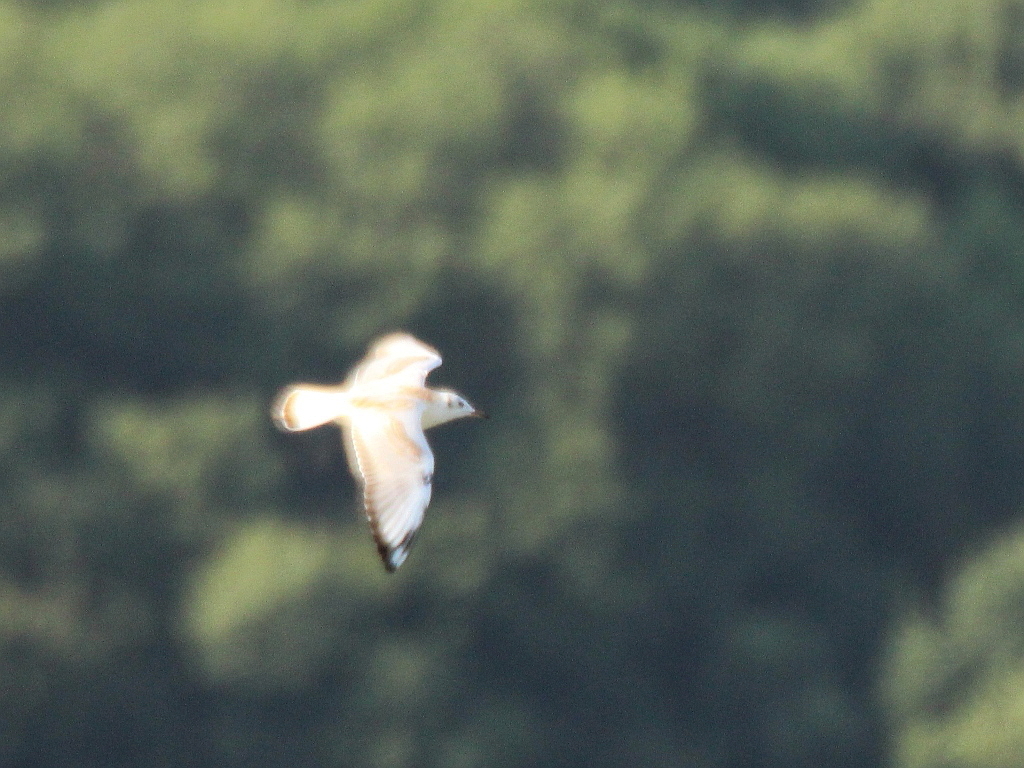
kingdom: Animalia
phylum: Chordata
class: Aves
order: Charadriiformes
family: Laridae
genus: Chroicocephalus
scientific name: Chroicocephalus ridibundus
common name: Black-headed gull
